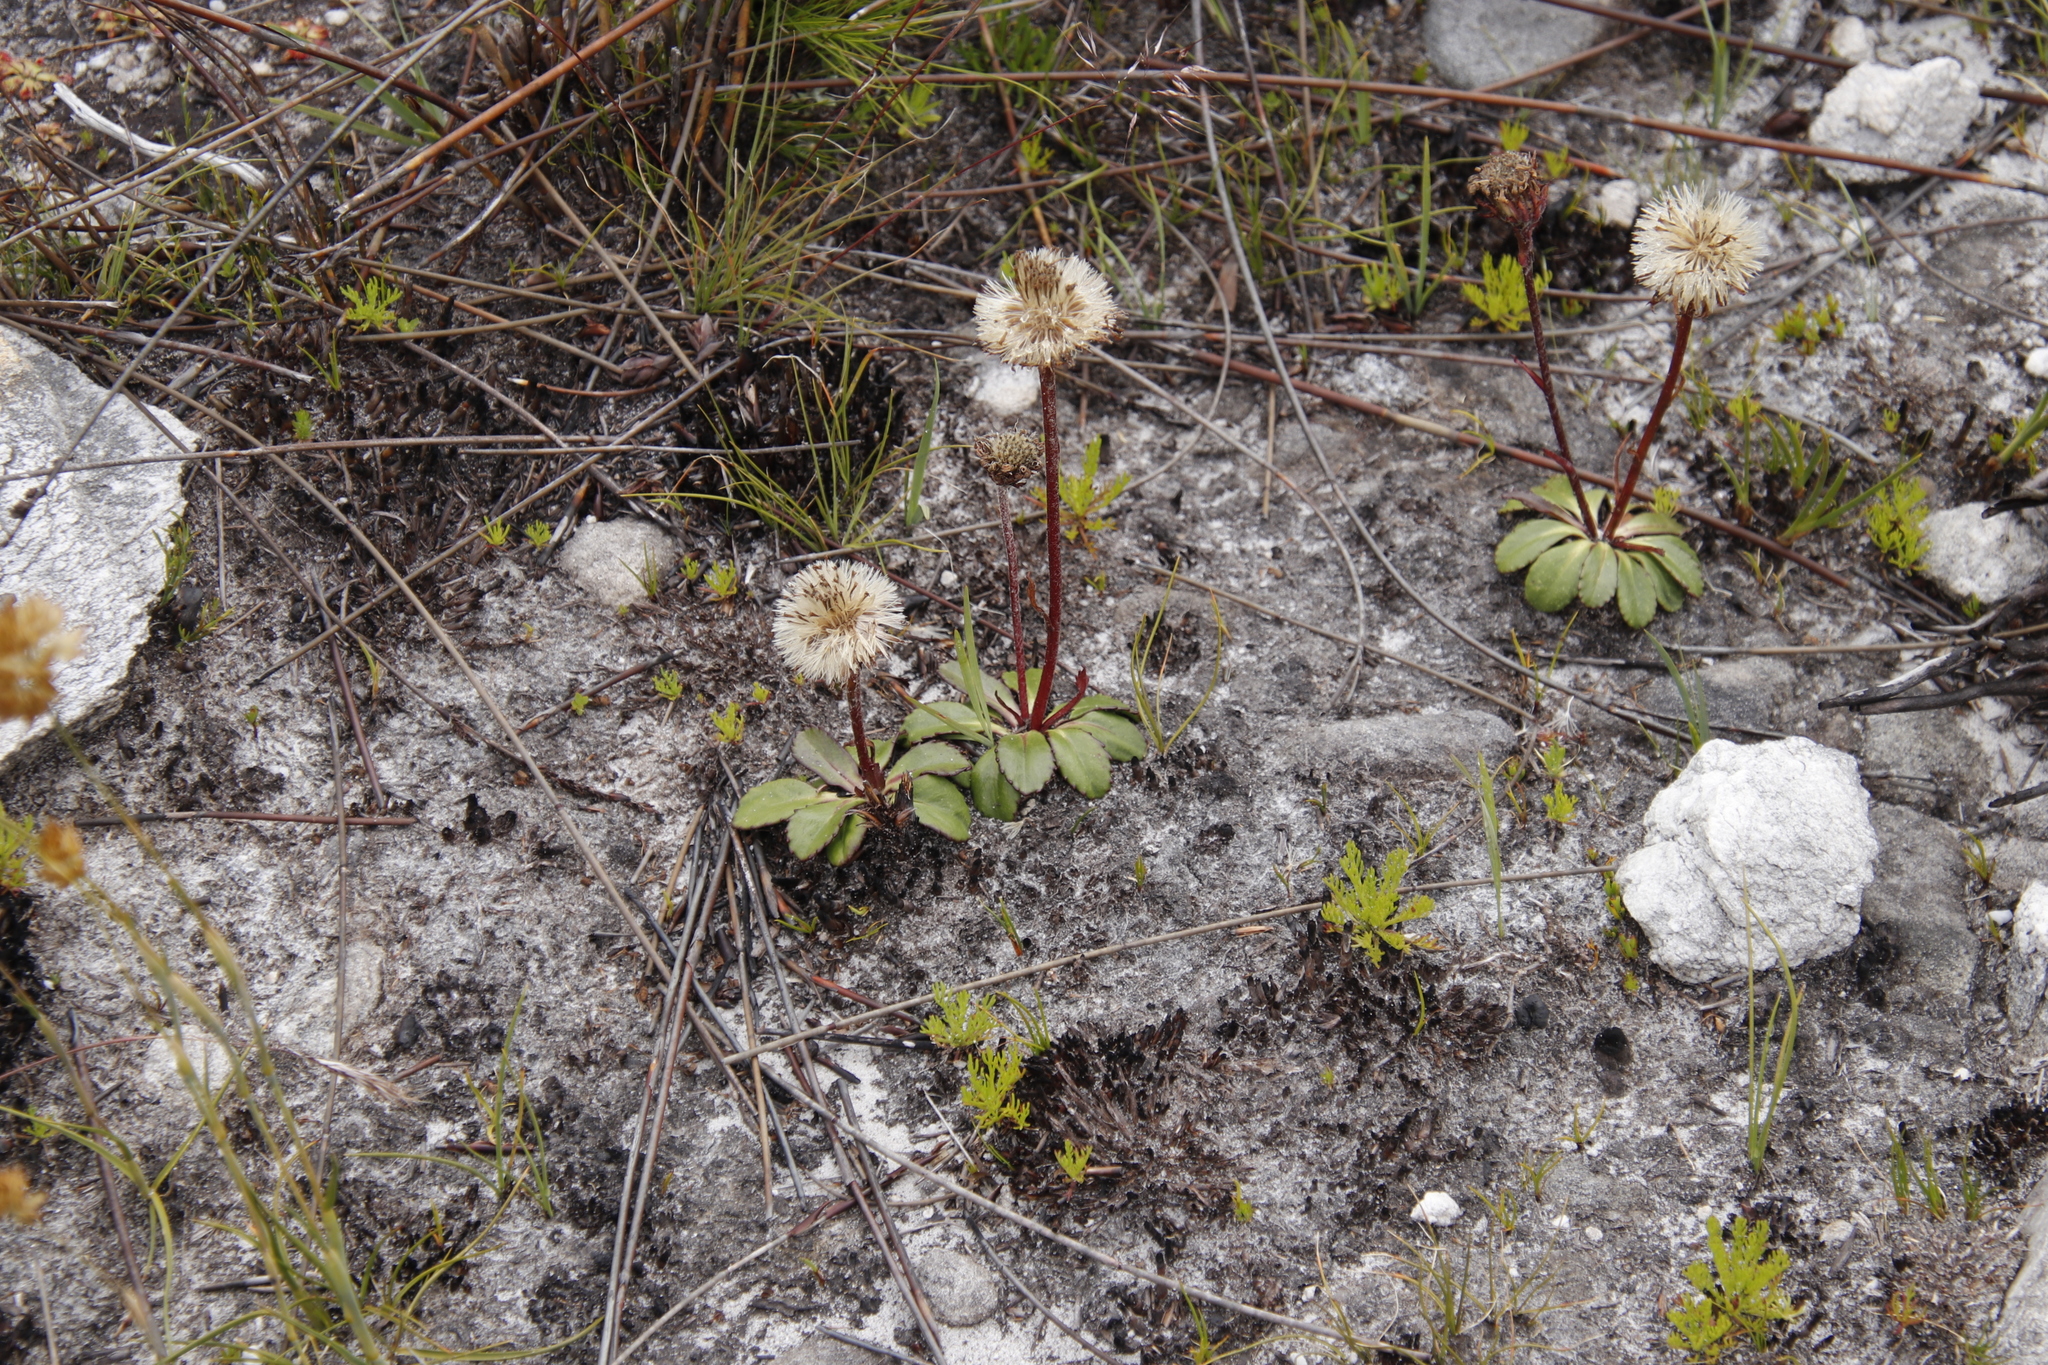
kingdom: Plantae
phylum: Tracheophyta
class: Magnoliopsida
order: Asterales
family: Asteraceae
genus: Zyrphelis
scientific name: Zyrphelis crenata
